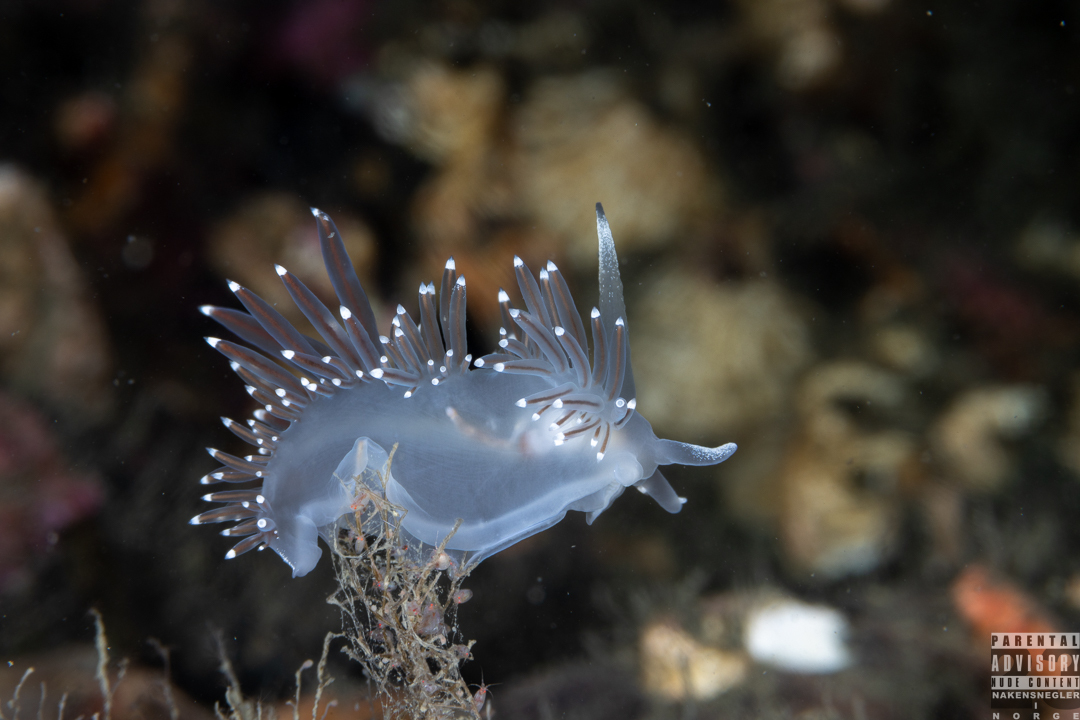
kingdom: Animalia
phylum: Mollusca
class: Gastropoda
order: Nudibranchia
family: Coryphellidae
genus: Coryphella
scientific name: Coryphella browni
